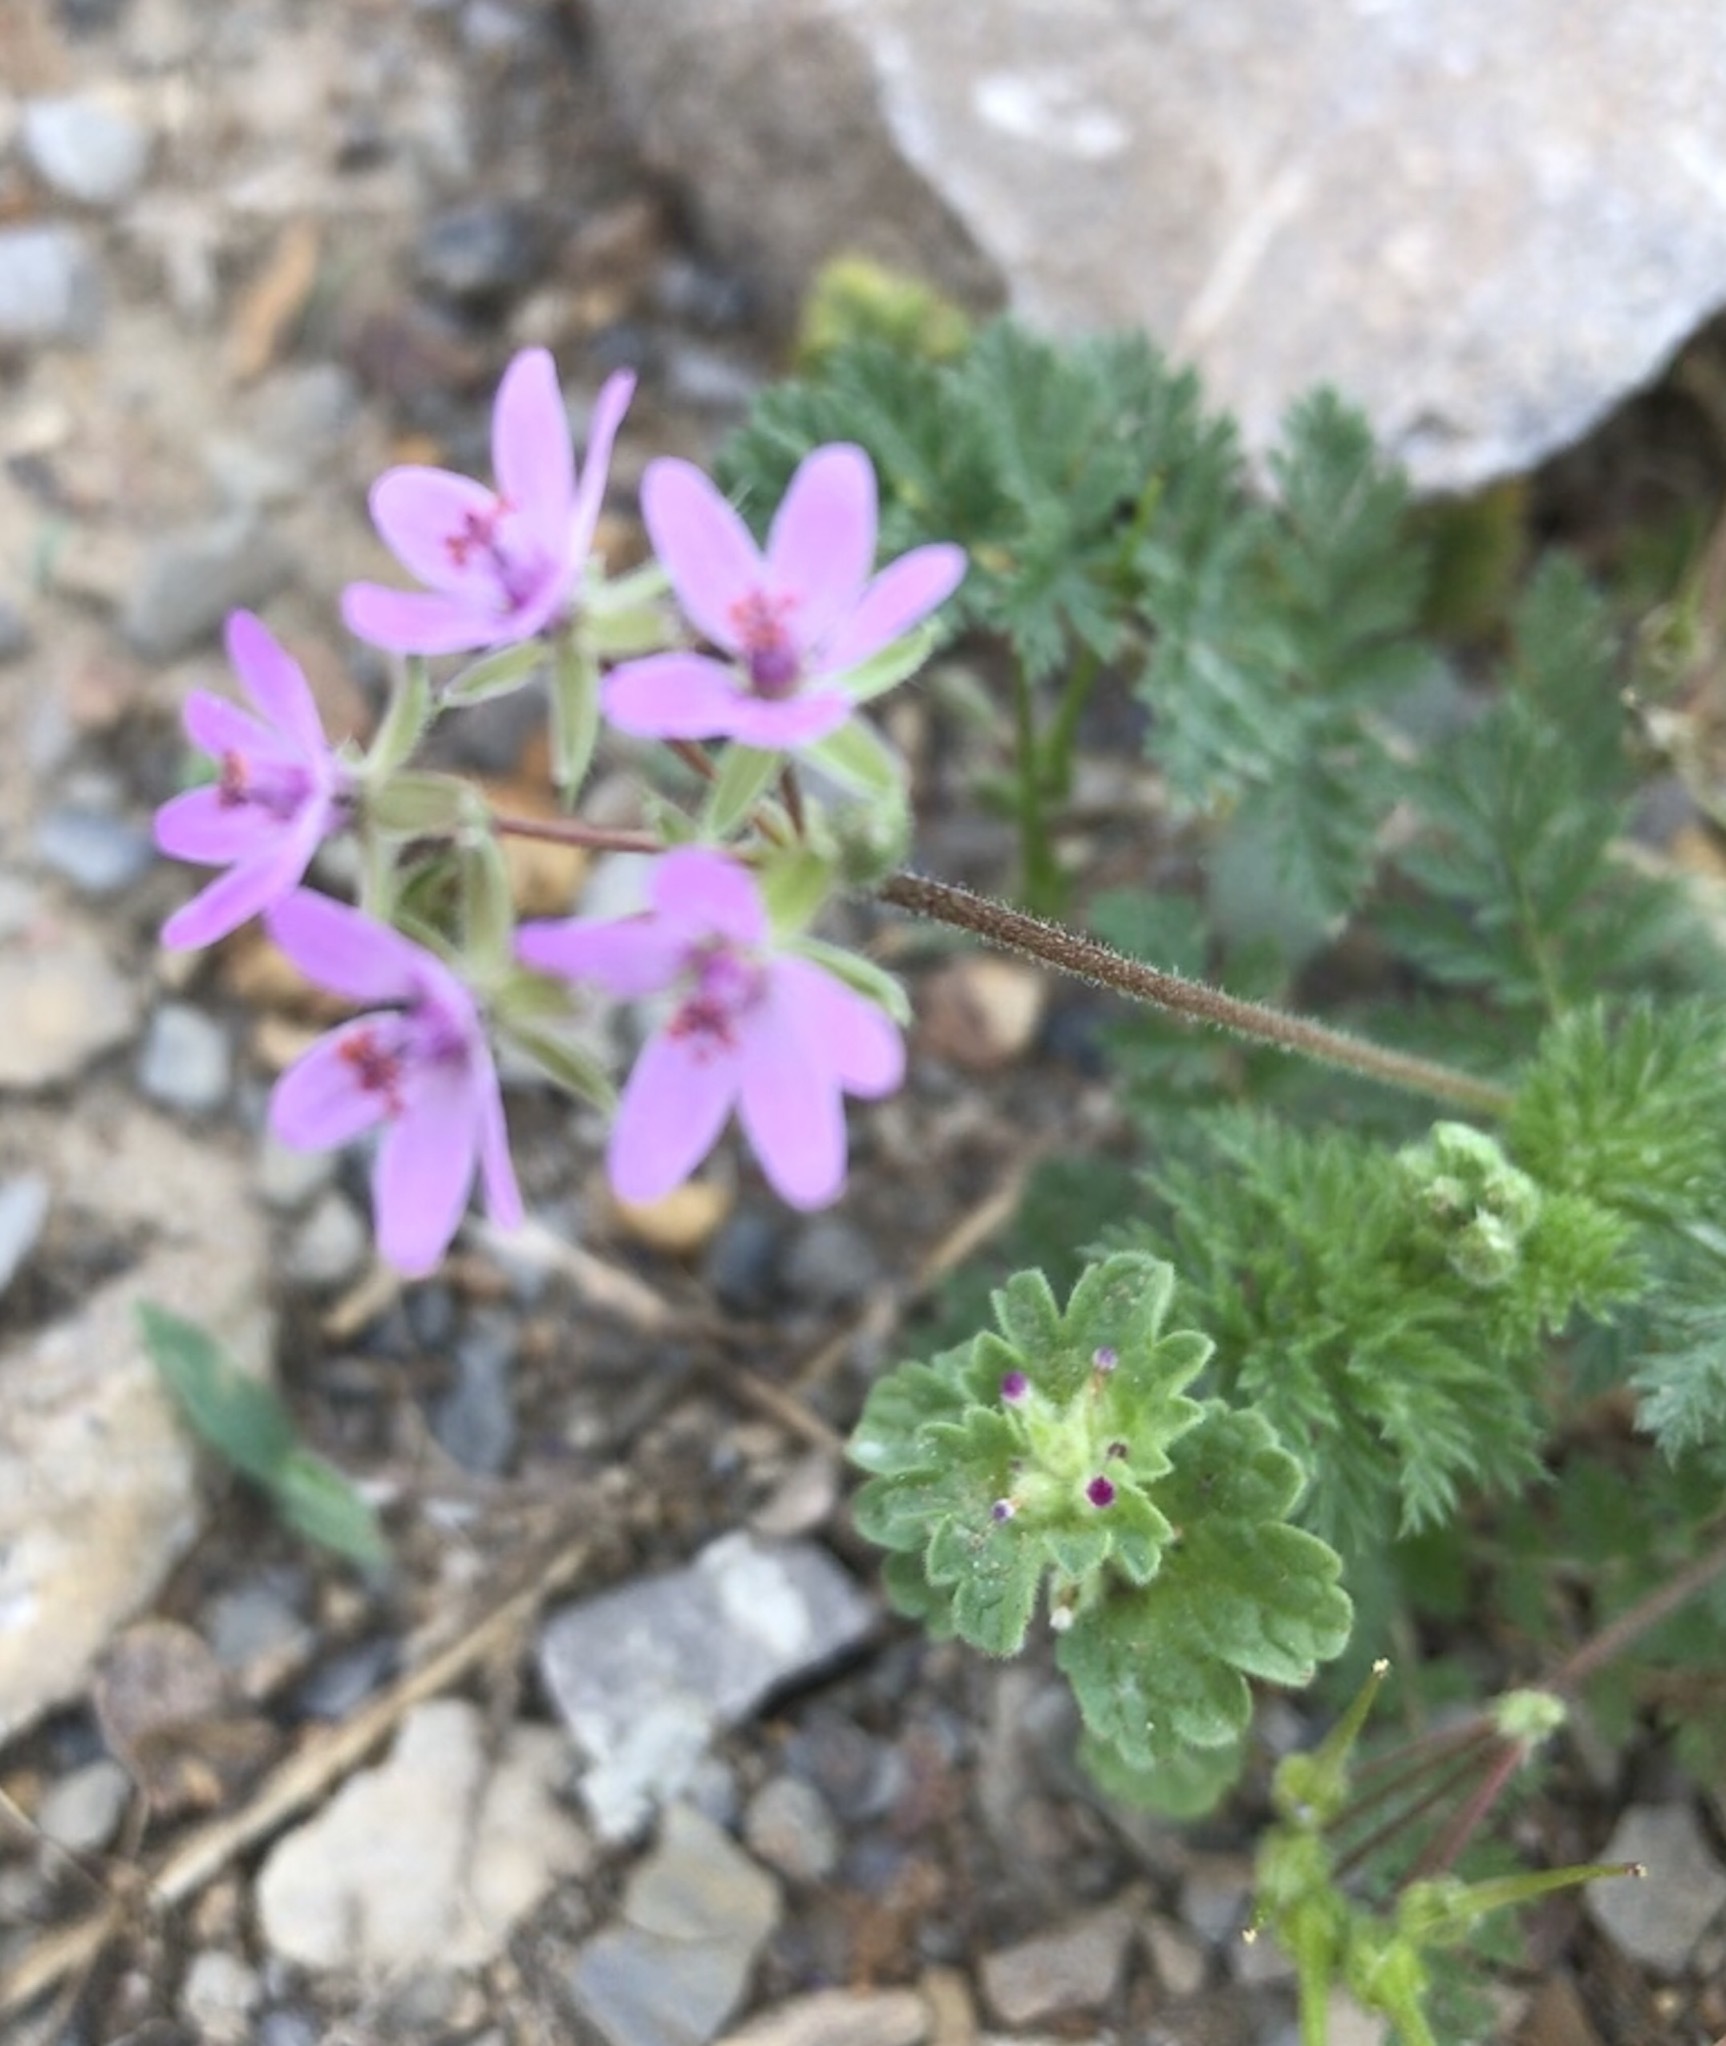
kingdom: Plantae
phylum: Tracheophyta
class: Magnoliopsida
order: Geraniales
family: Geraniaceae
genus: Erodium
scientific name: Erodium cicutarium
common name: Common stork's-bill
